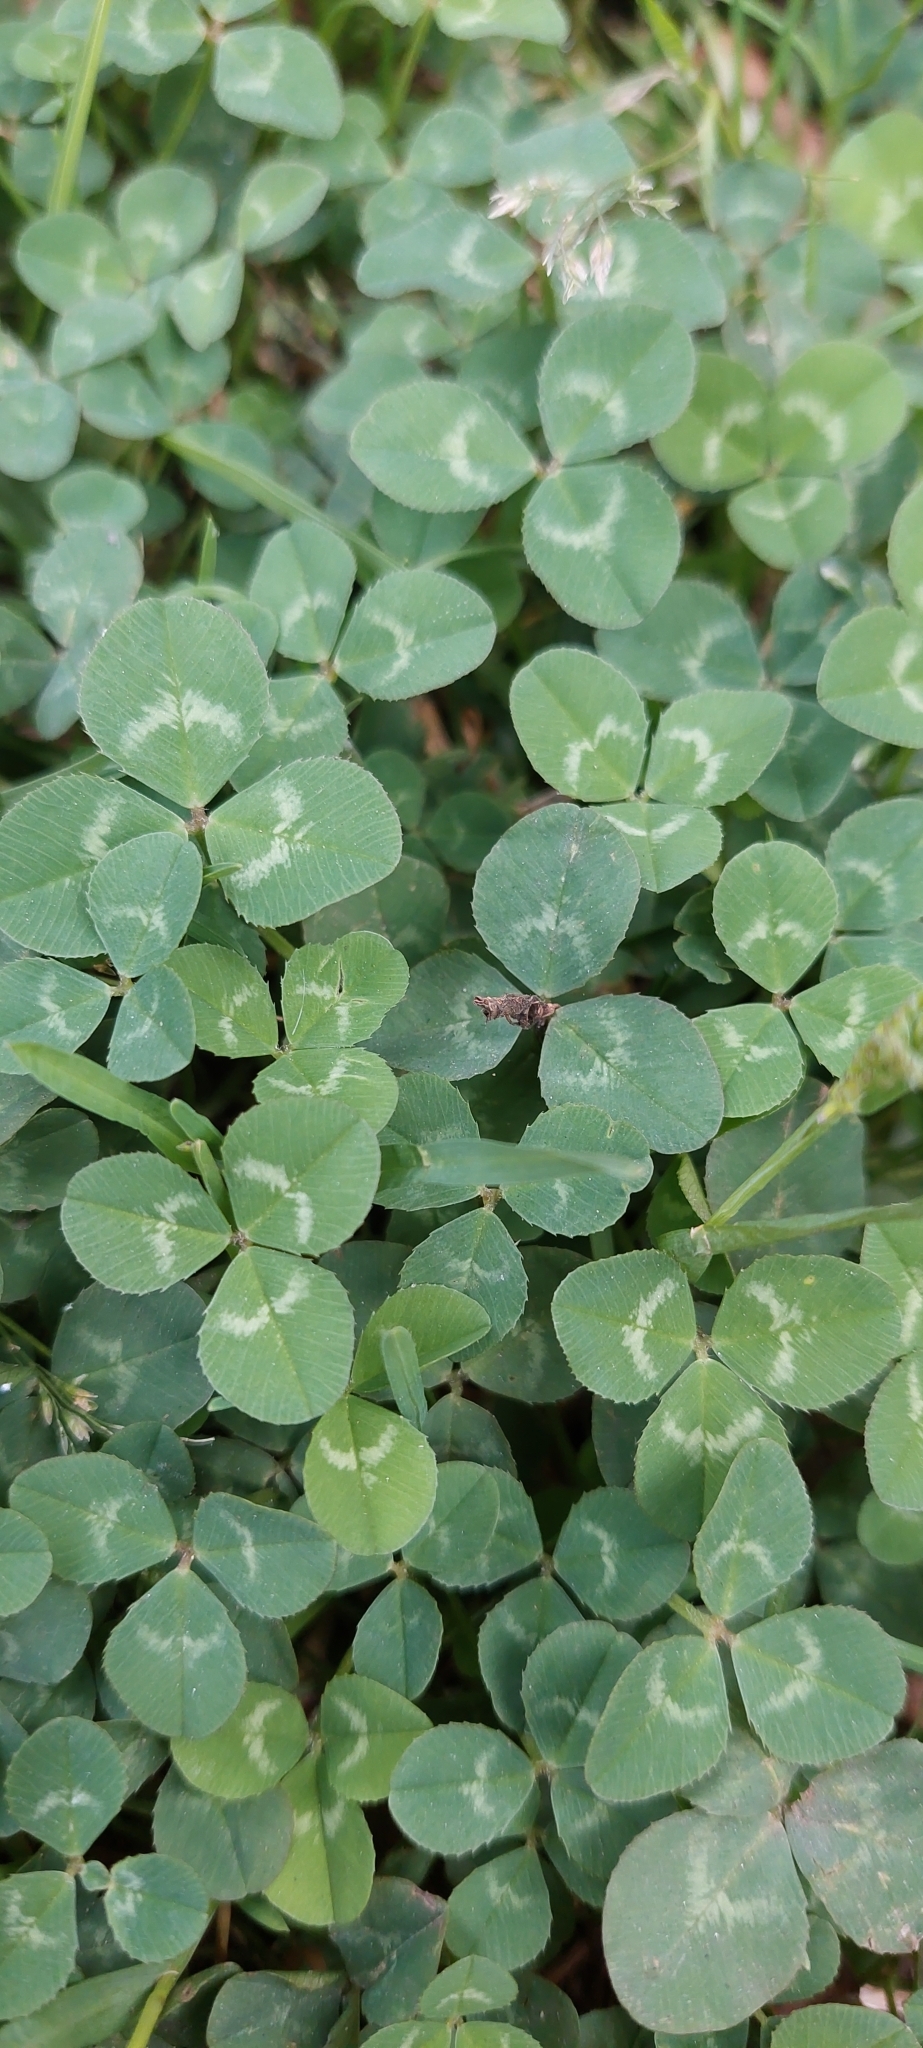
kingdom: Plantae
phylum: Tracheophyta
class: Magnoliopsida
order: Fabales
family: Fabaceae
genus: Trifolium
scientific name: Trifolium repens
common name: White clover
